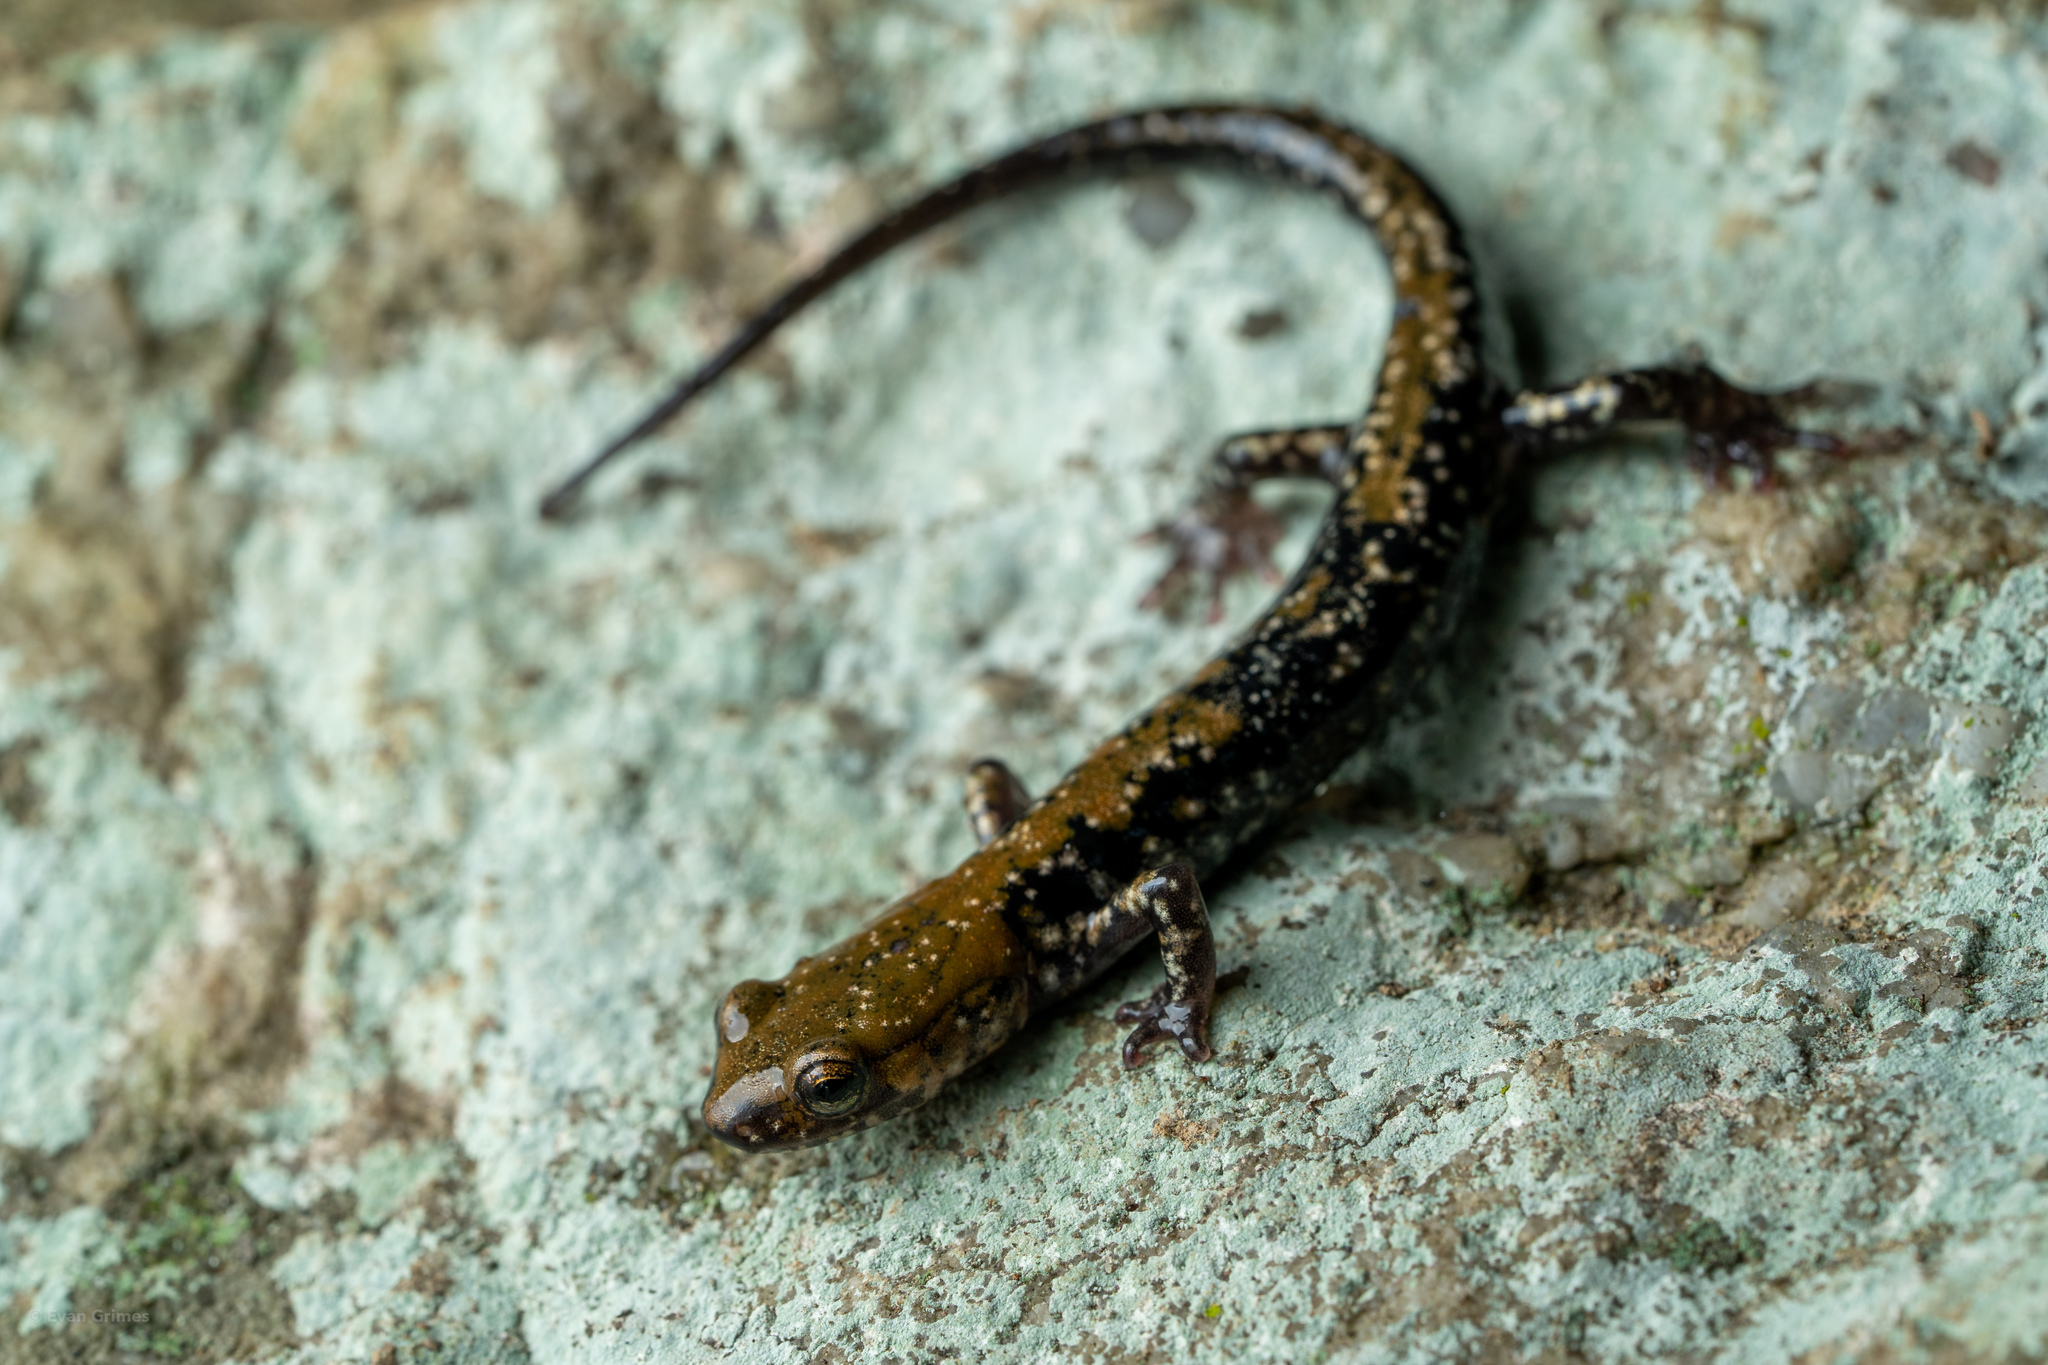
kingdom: Animalia
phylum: Chordata
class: Amphibia
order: Caudata
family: Plethodontidae
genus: Plethodon
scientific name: Plethodon petraeus
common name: Pigeon mountain salamander
